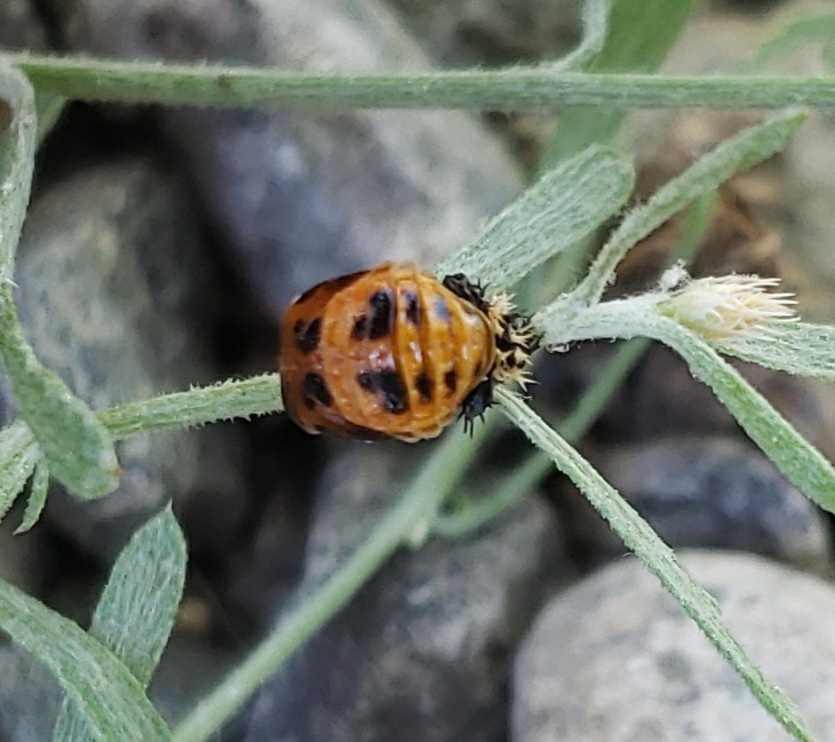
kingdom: Animalia
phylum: Arthropoda
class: Insecta
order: Coleoptera
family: Coccinellidae
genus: Harmonia
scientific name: Harmonia axyridis
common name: Harlequin ladybird
